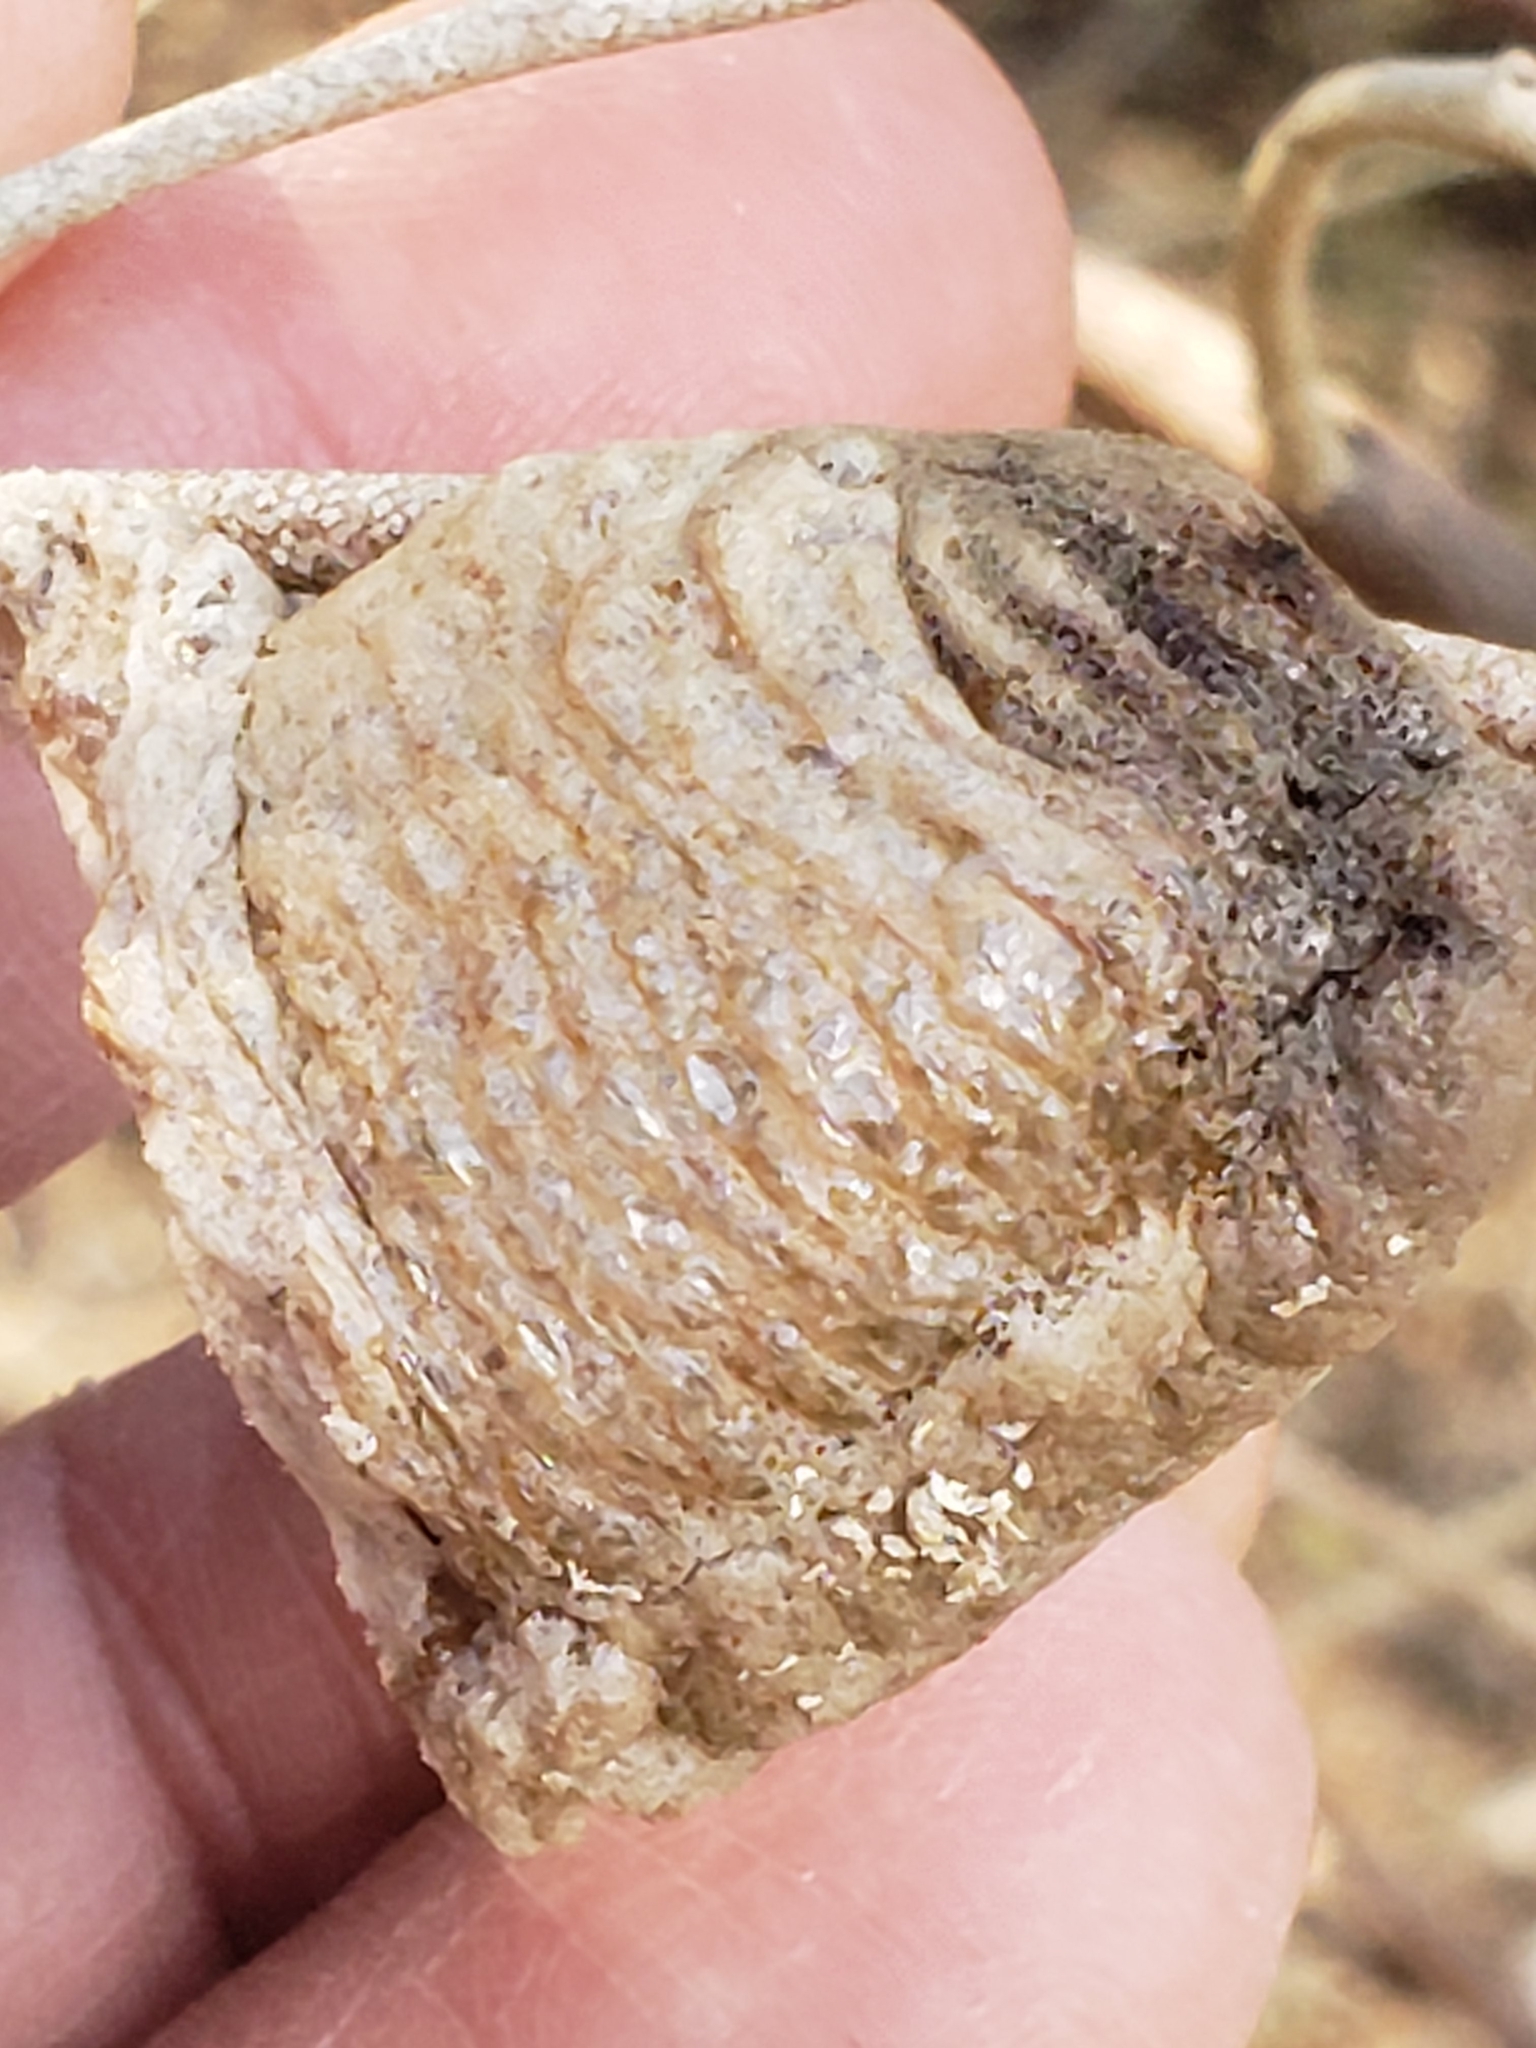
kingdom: Animalia
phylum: Arthropoda
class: Insecta
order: Mantodea
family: Mantidae
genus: Tenodera
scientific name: Tenodera sinensis
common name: Chinese mantis
